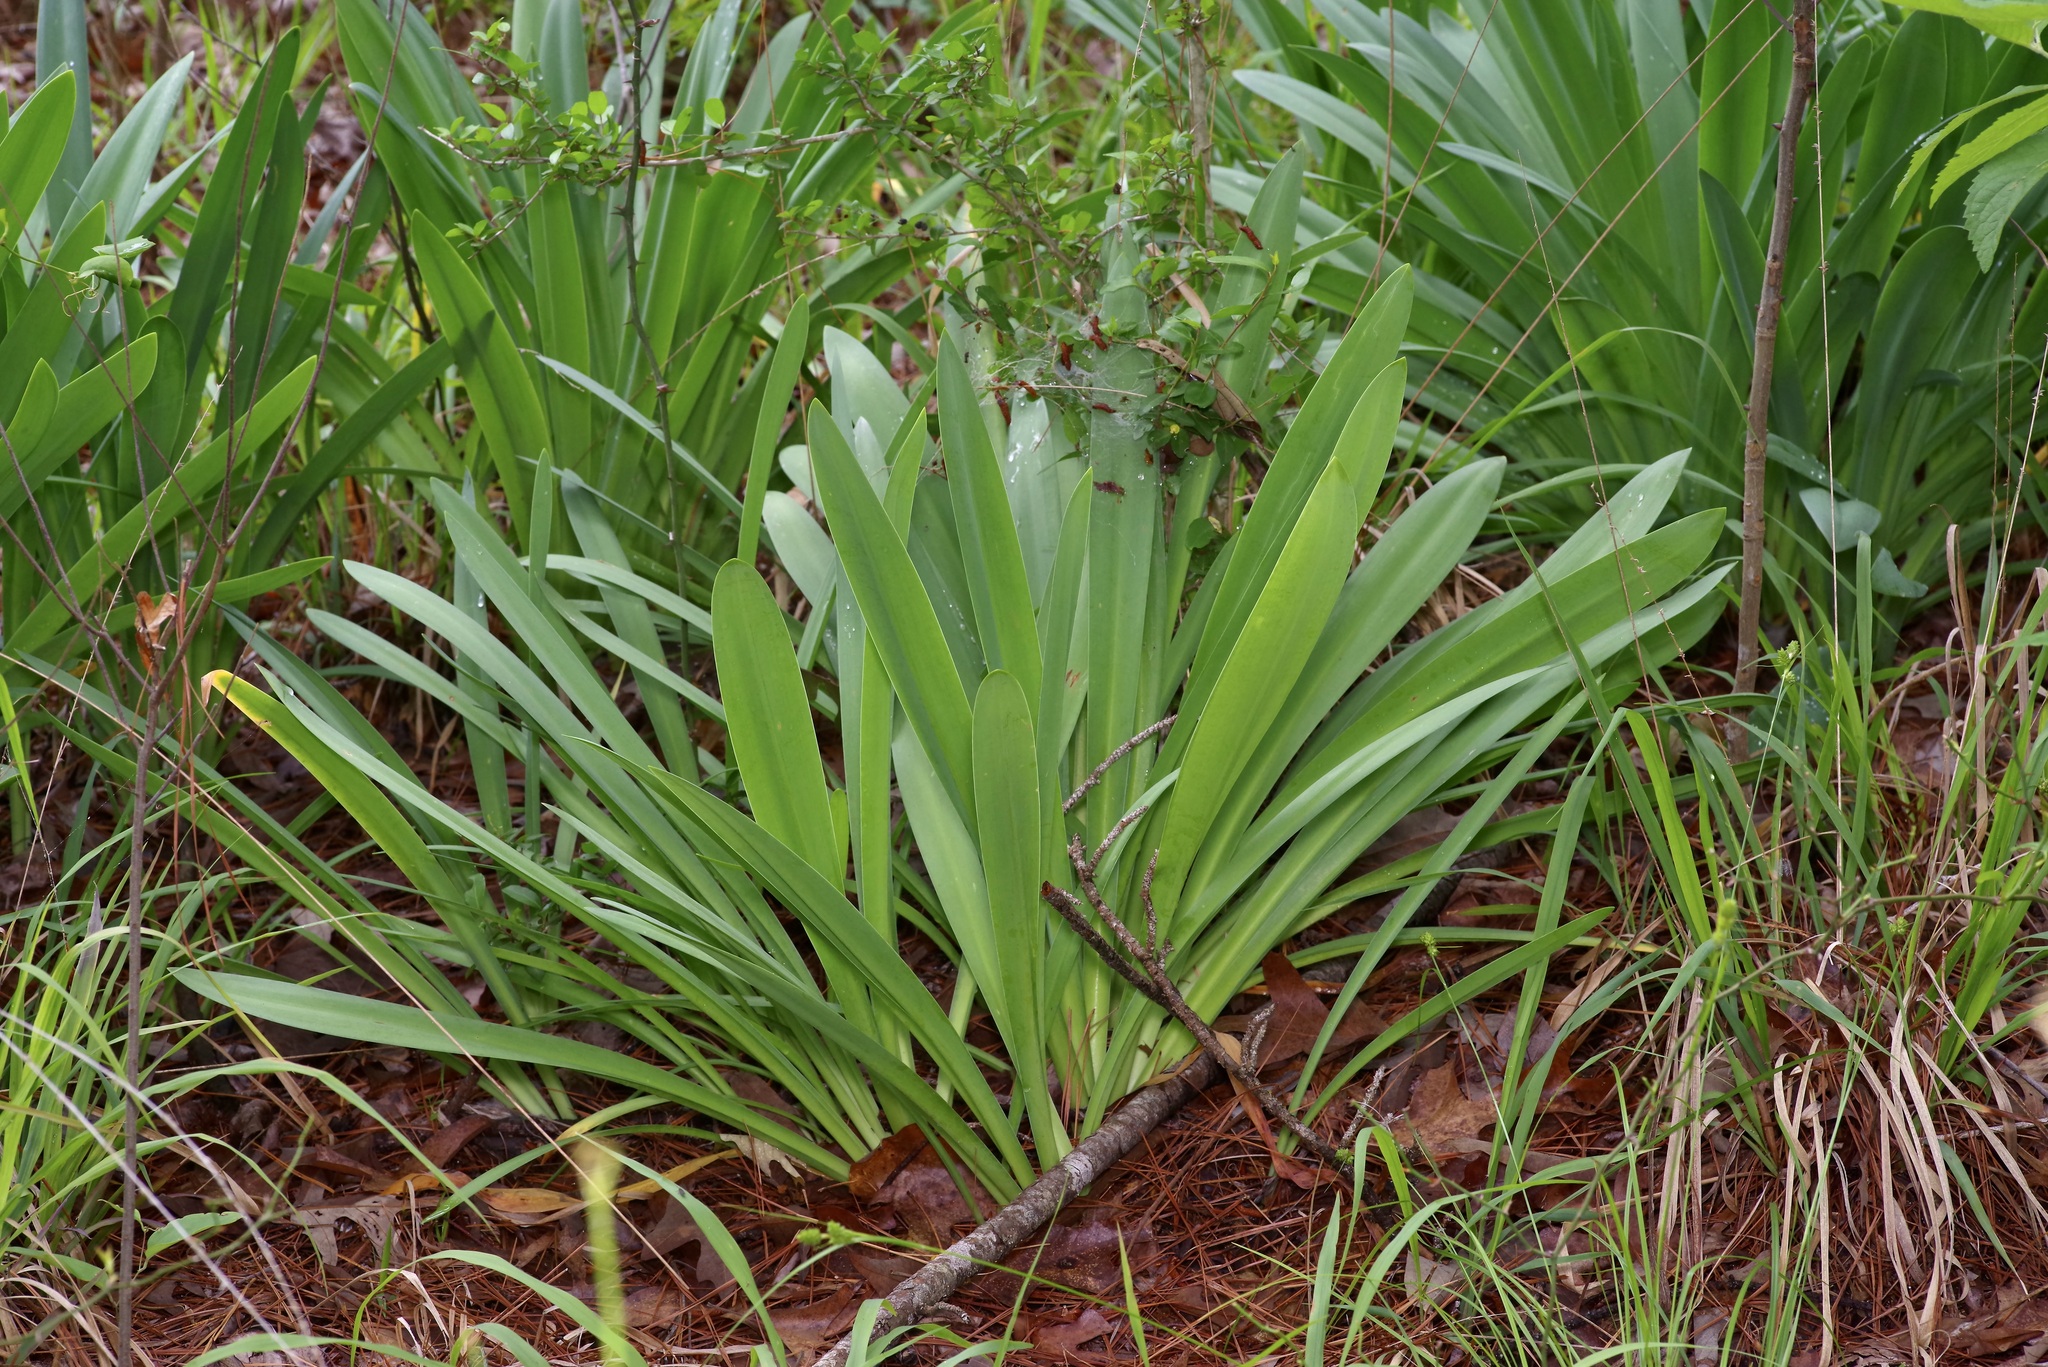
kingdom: Plantae
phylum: Tracheophyta
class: Liliopsida
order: Asparagales
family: Amaryllidaceae
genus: Hymenocallis
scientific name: Hymenocallis occidentalis
